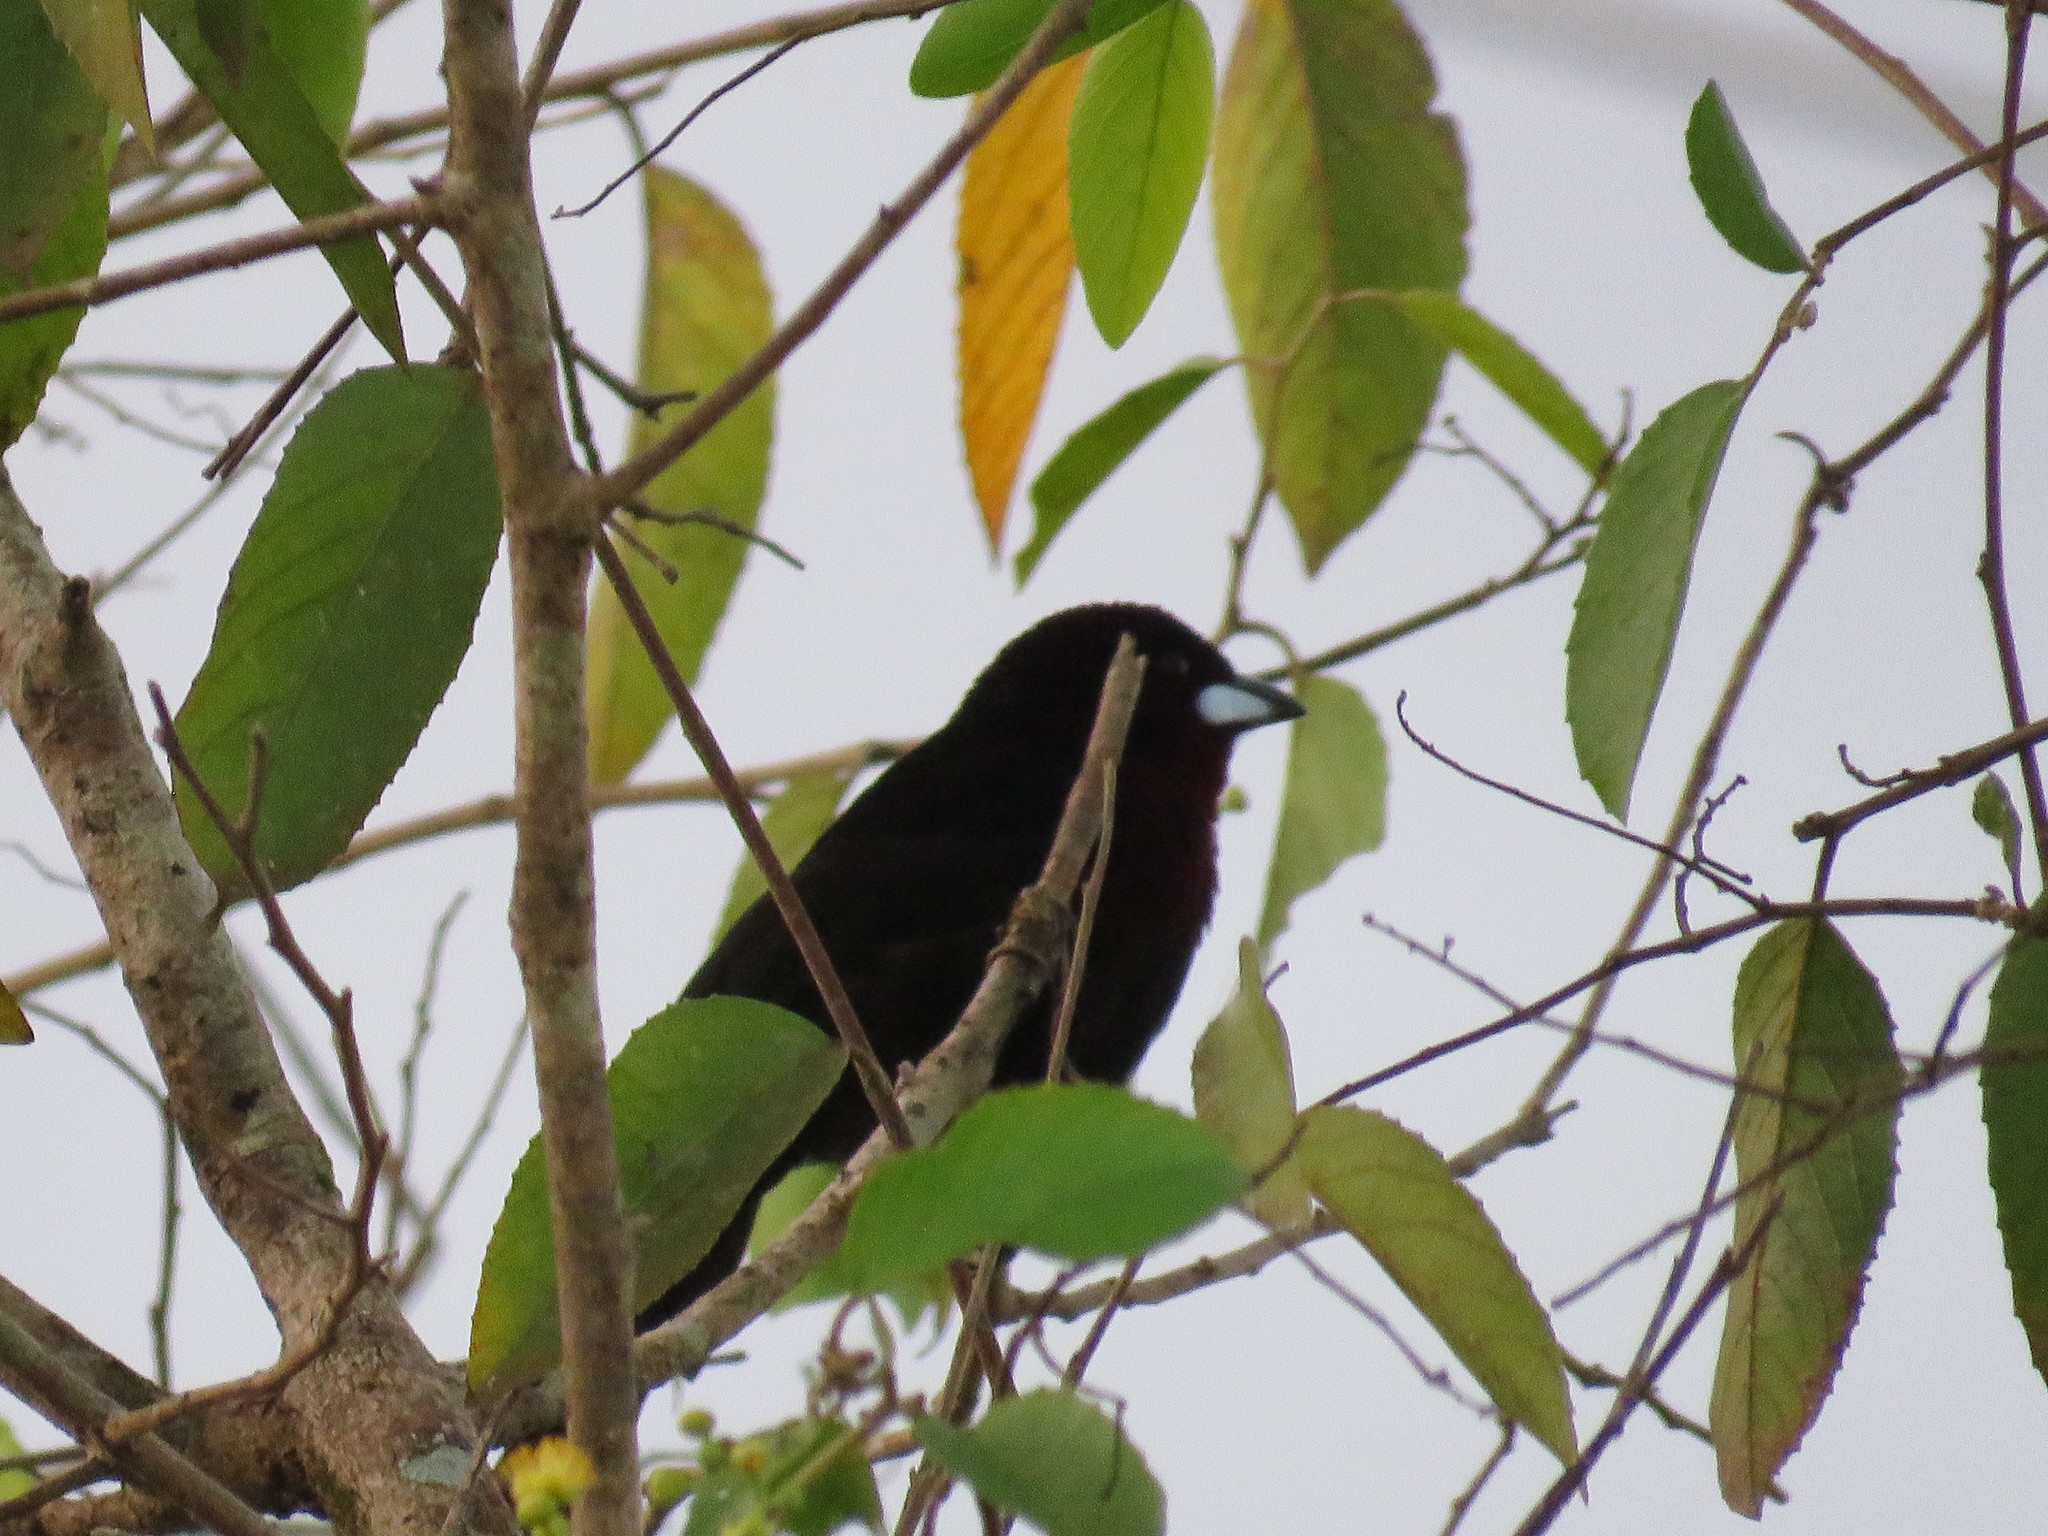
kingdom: Animalia
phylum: Chordata
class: Aves
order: Passeriformes
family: Thraupidae
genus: Ramphocelus
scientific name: Ramphocelus carbo
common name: Silver-beaked tanager
